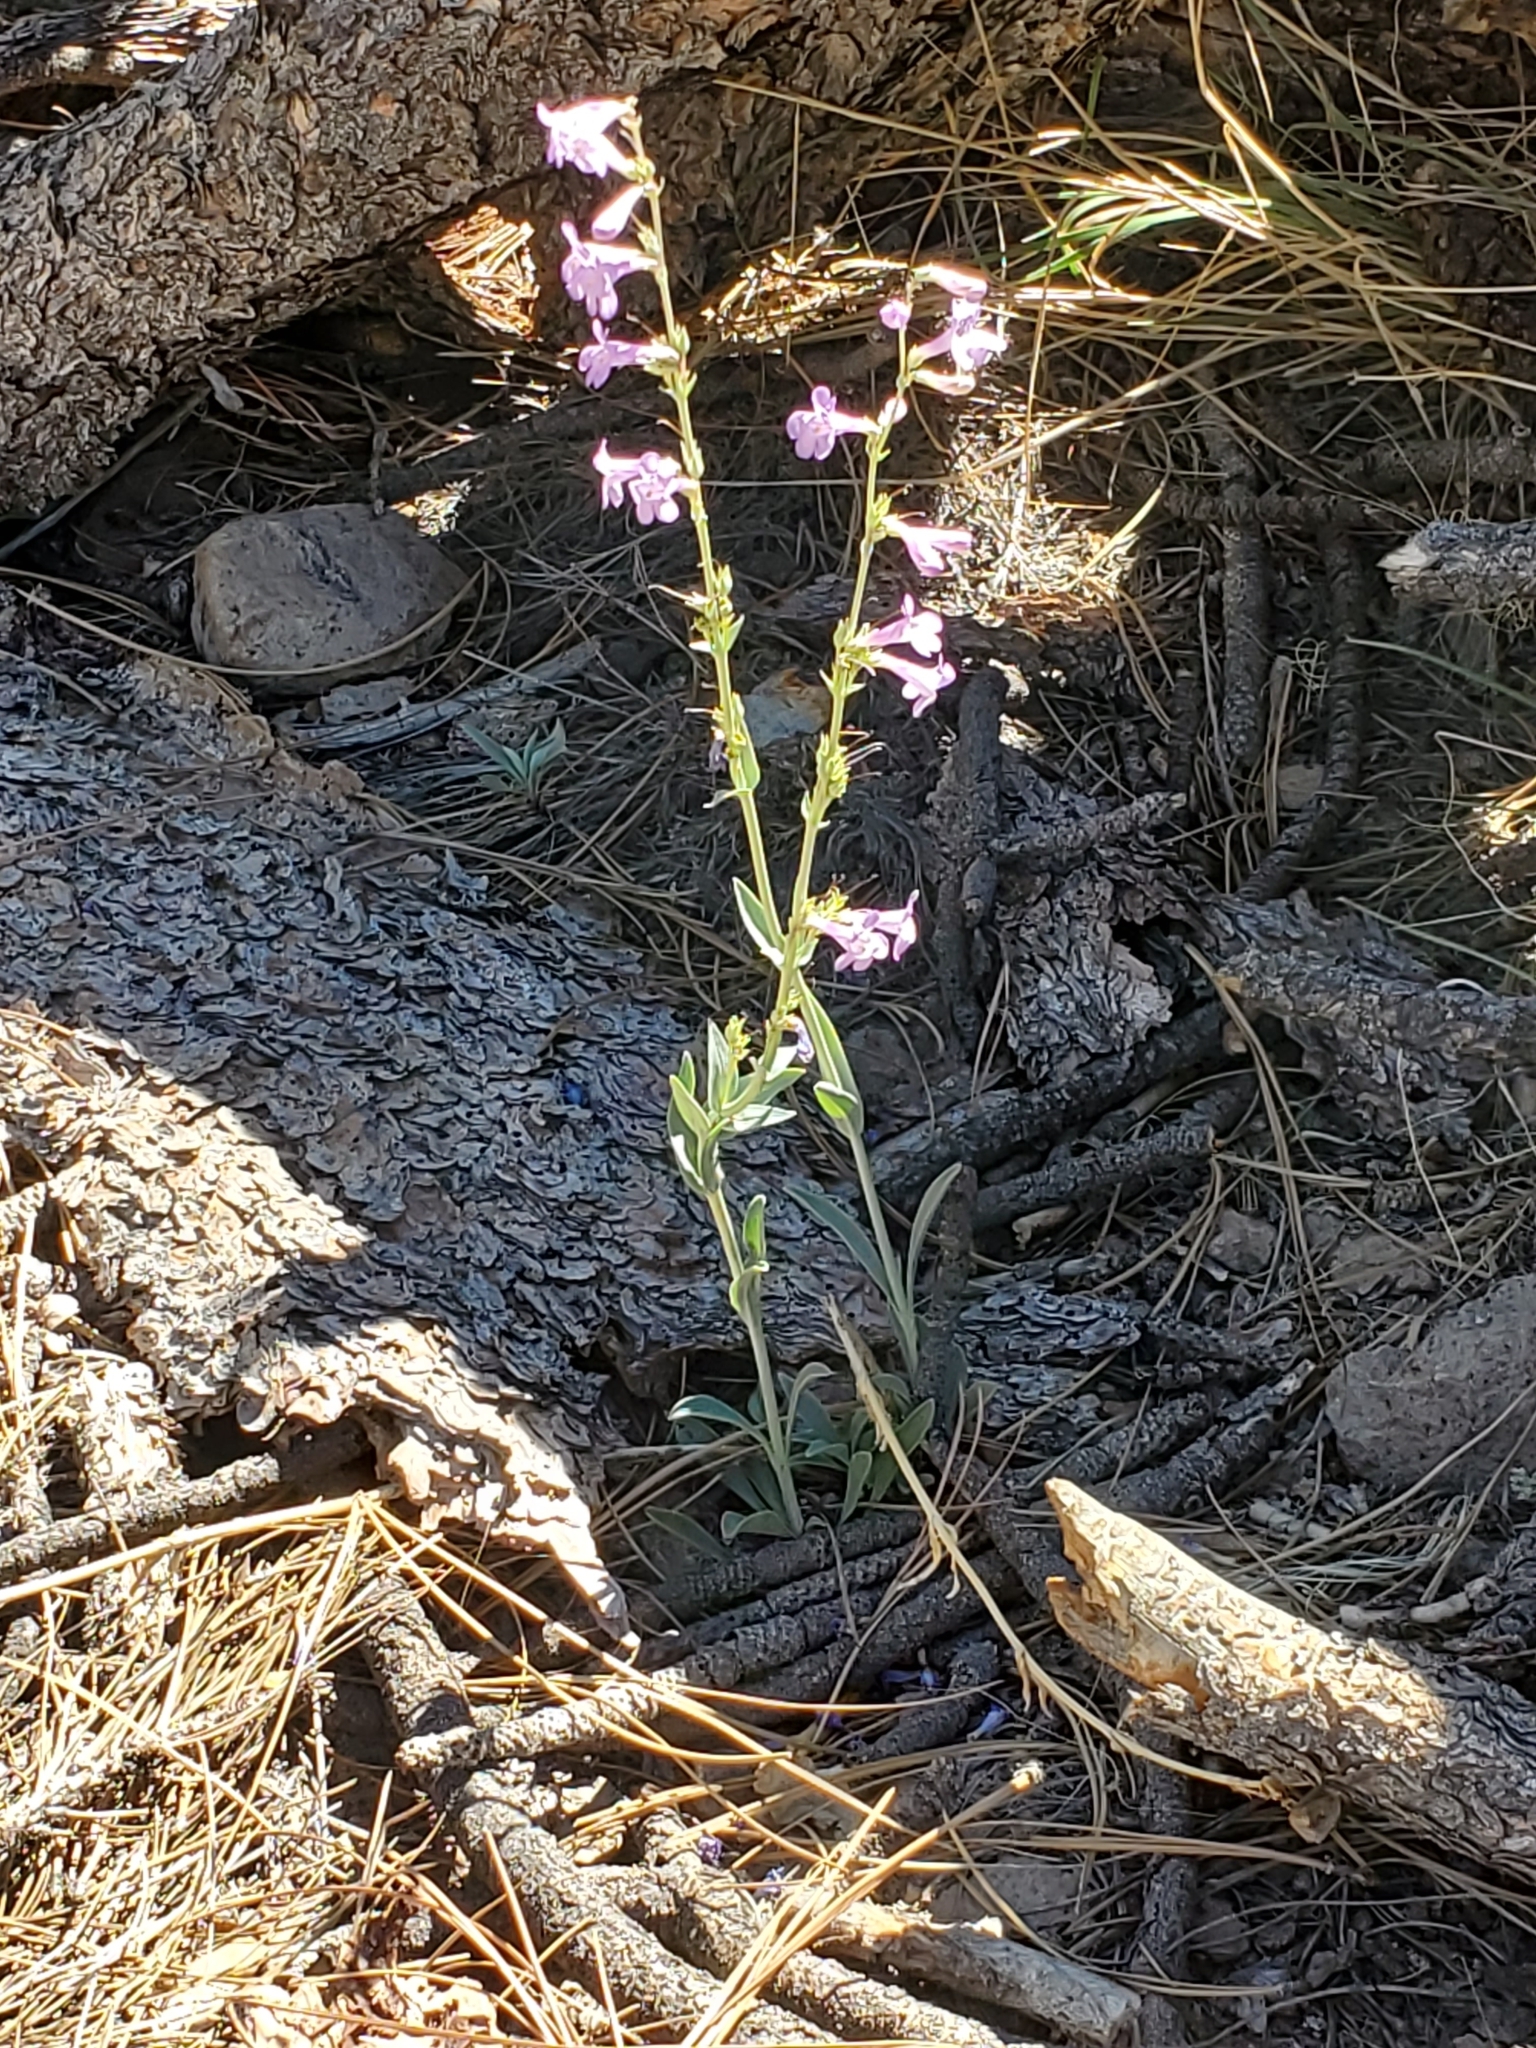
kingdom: Plantae
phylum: Tracheophyta
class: Magnoliopsida
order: Lamiales
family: Plantaginaceae
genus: Penstemon
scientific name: Penstemon secundiflorus
